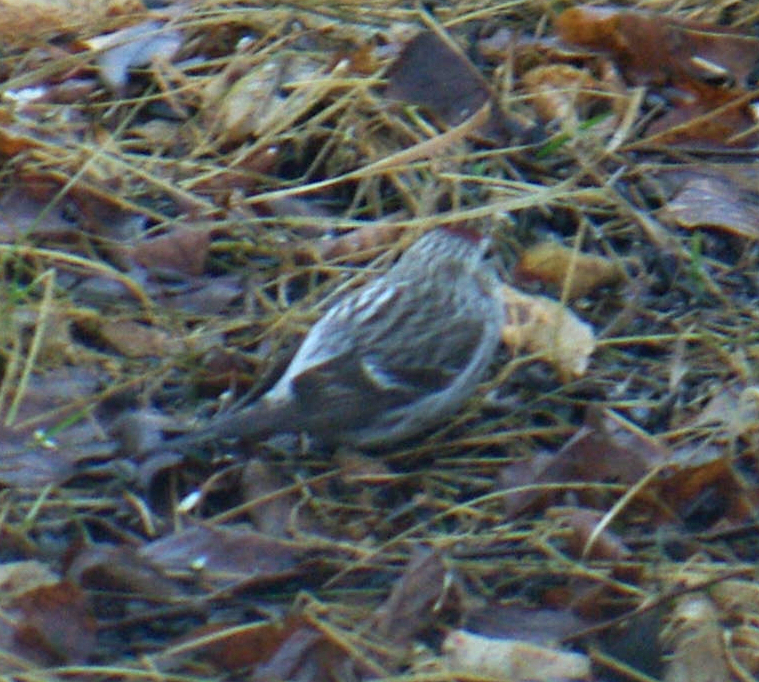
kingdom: Animalia
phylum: Chordata
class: Aves
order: Passeriformes
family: Fringillidae
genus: Acanthis
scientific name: Acanthis hornemanni
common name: Arctic redpoll
